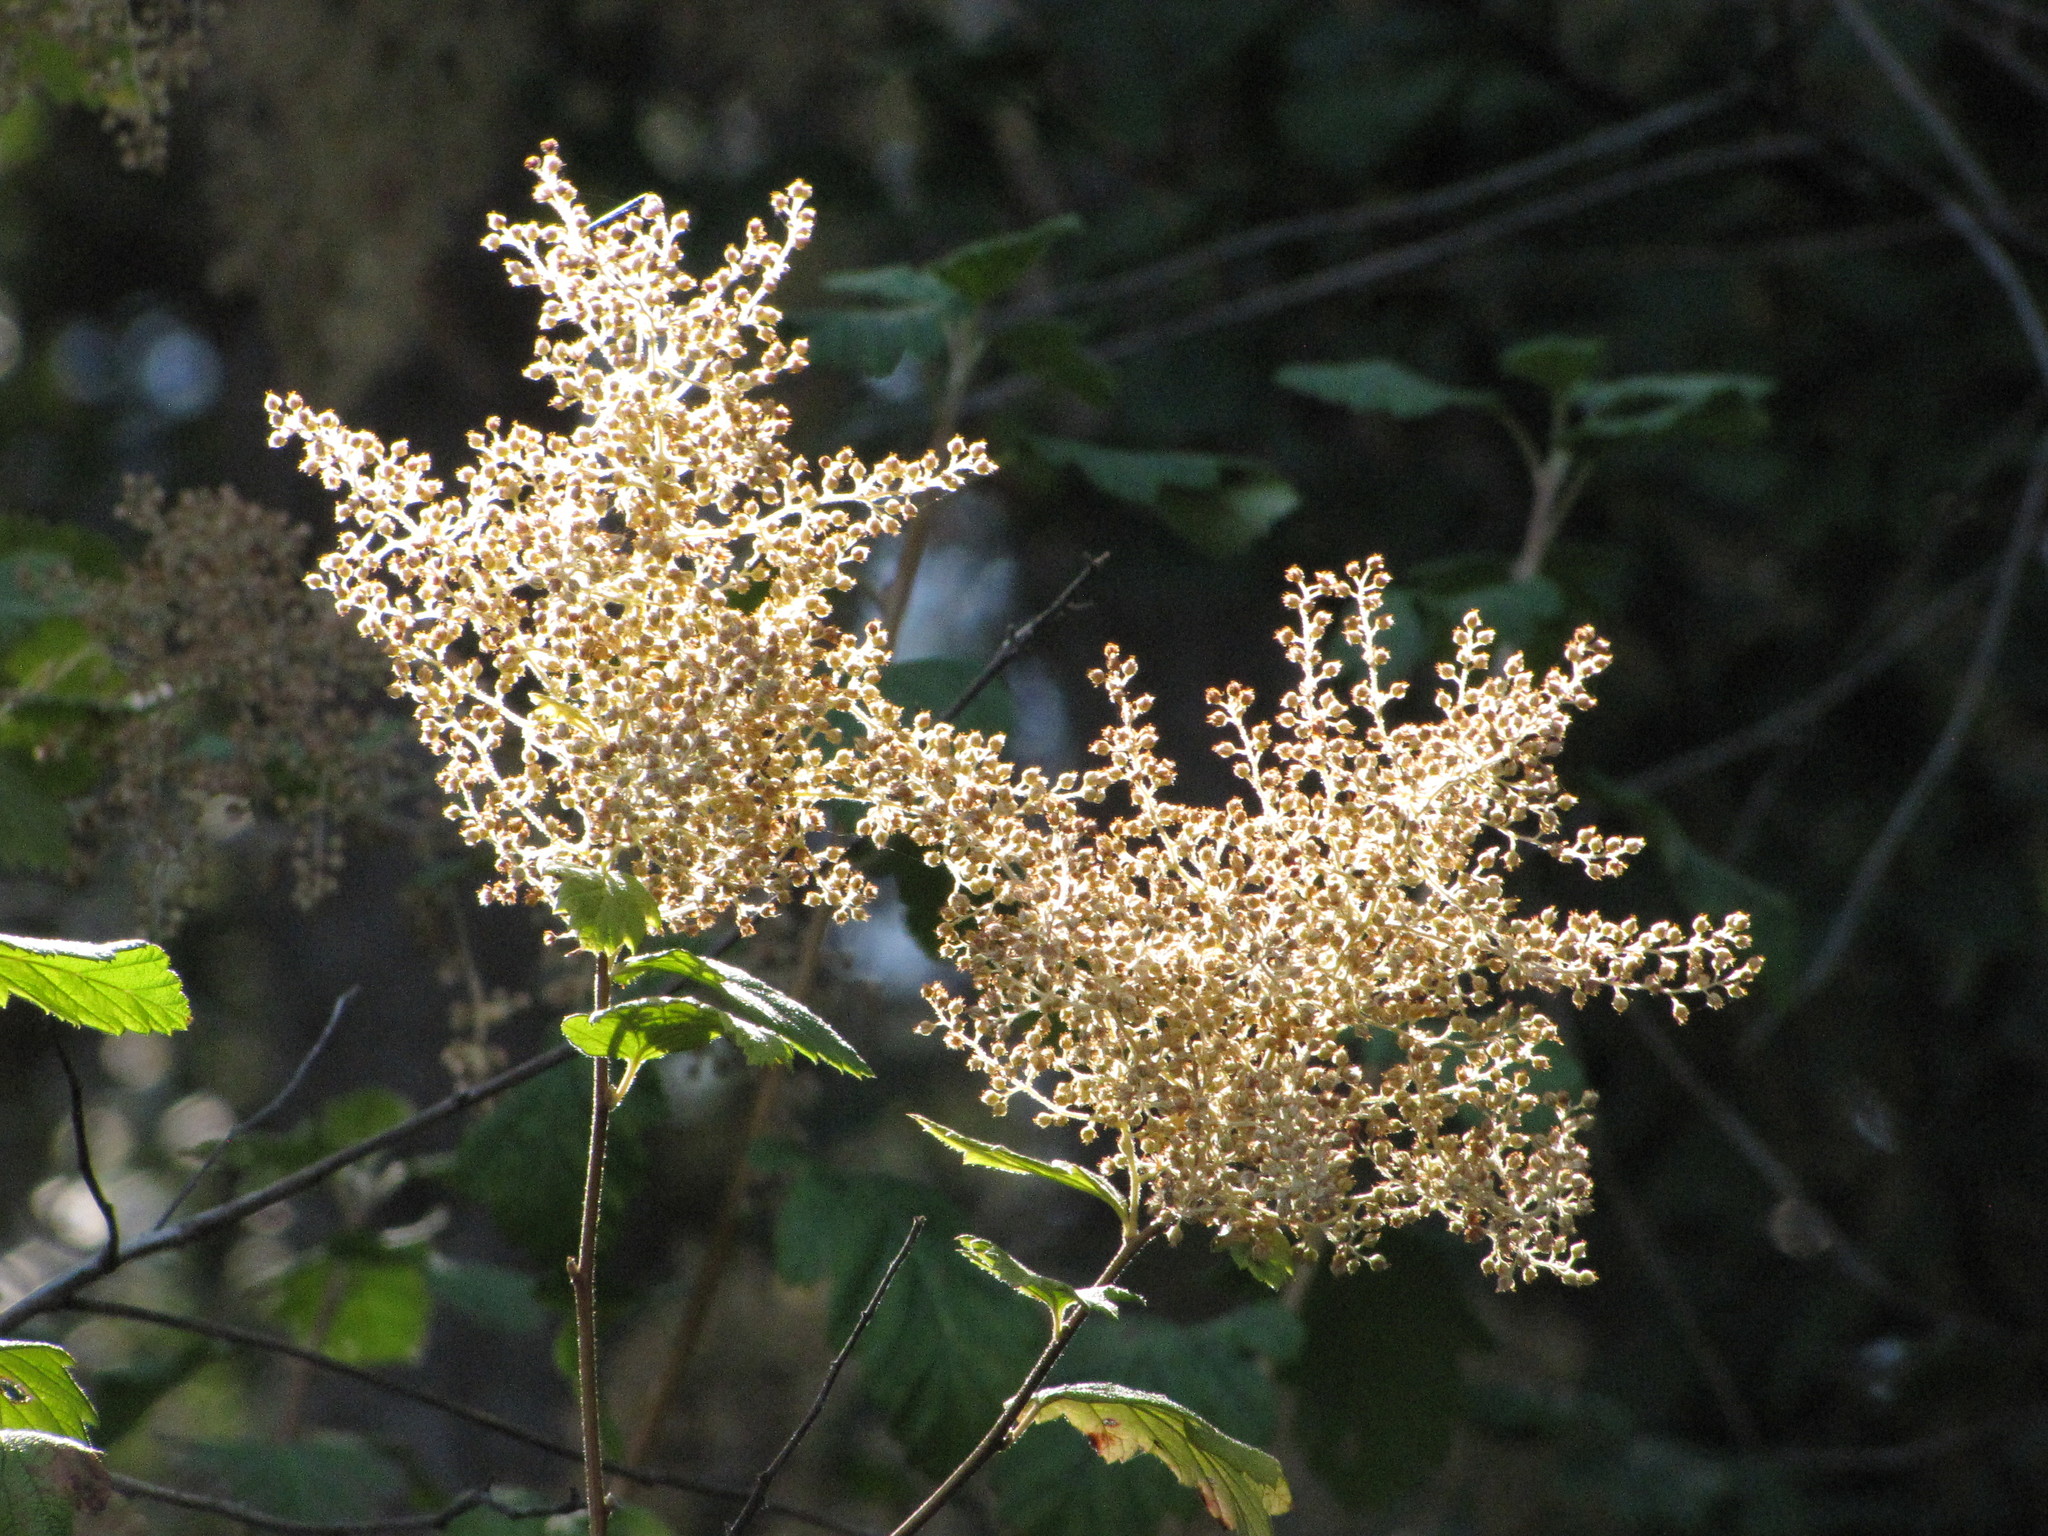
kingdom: Plantae
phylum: Tracheophyta
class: Magnoliopsida
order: Rosales
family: Rosaceae
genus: Holodiscus
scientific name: Holodiscus discolor
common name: Oceanspray
